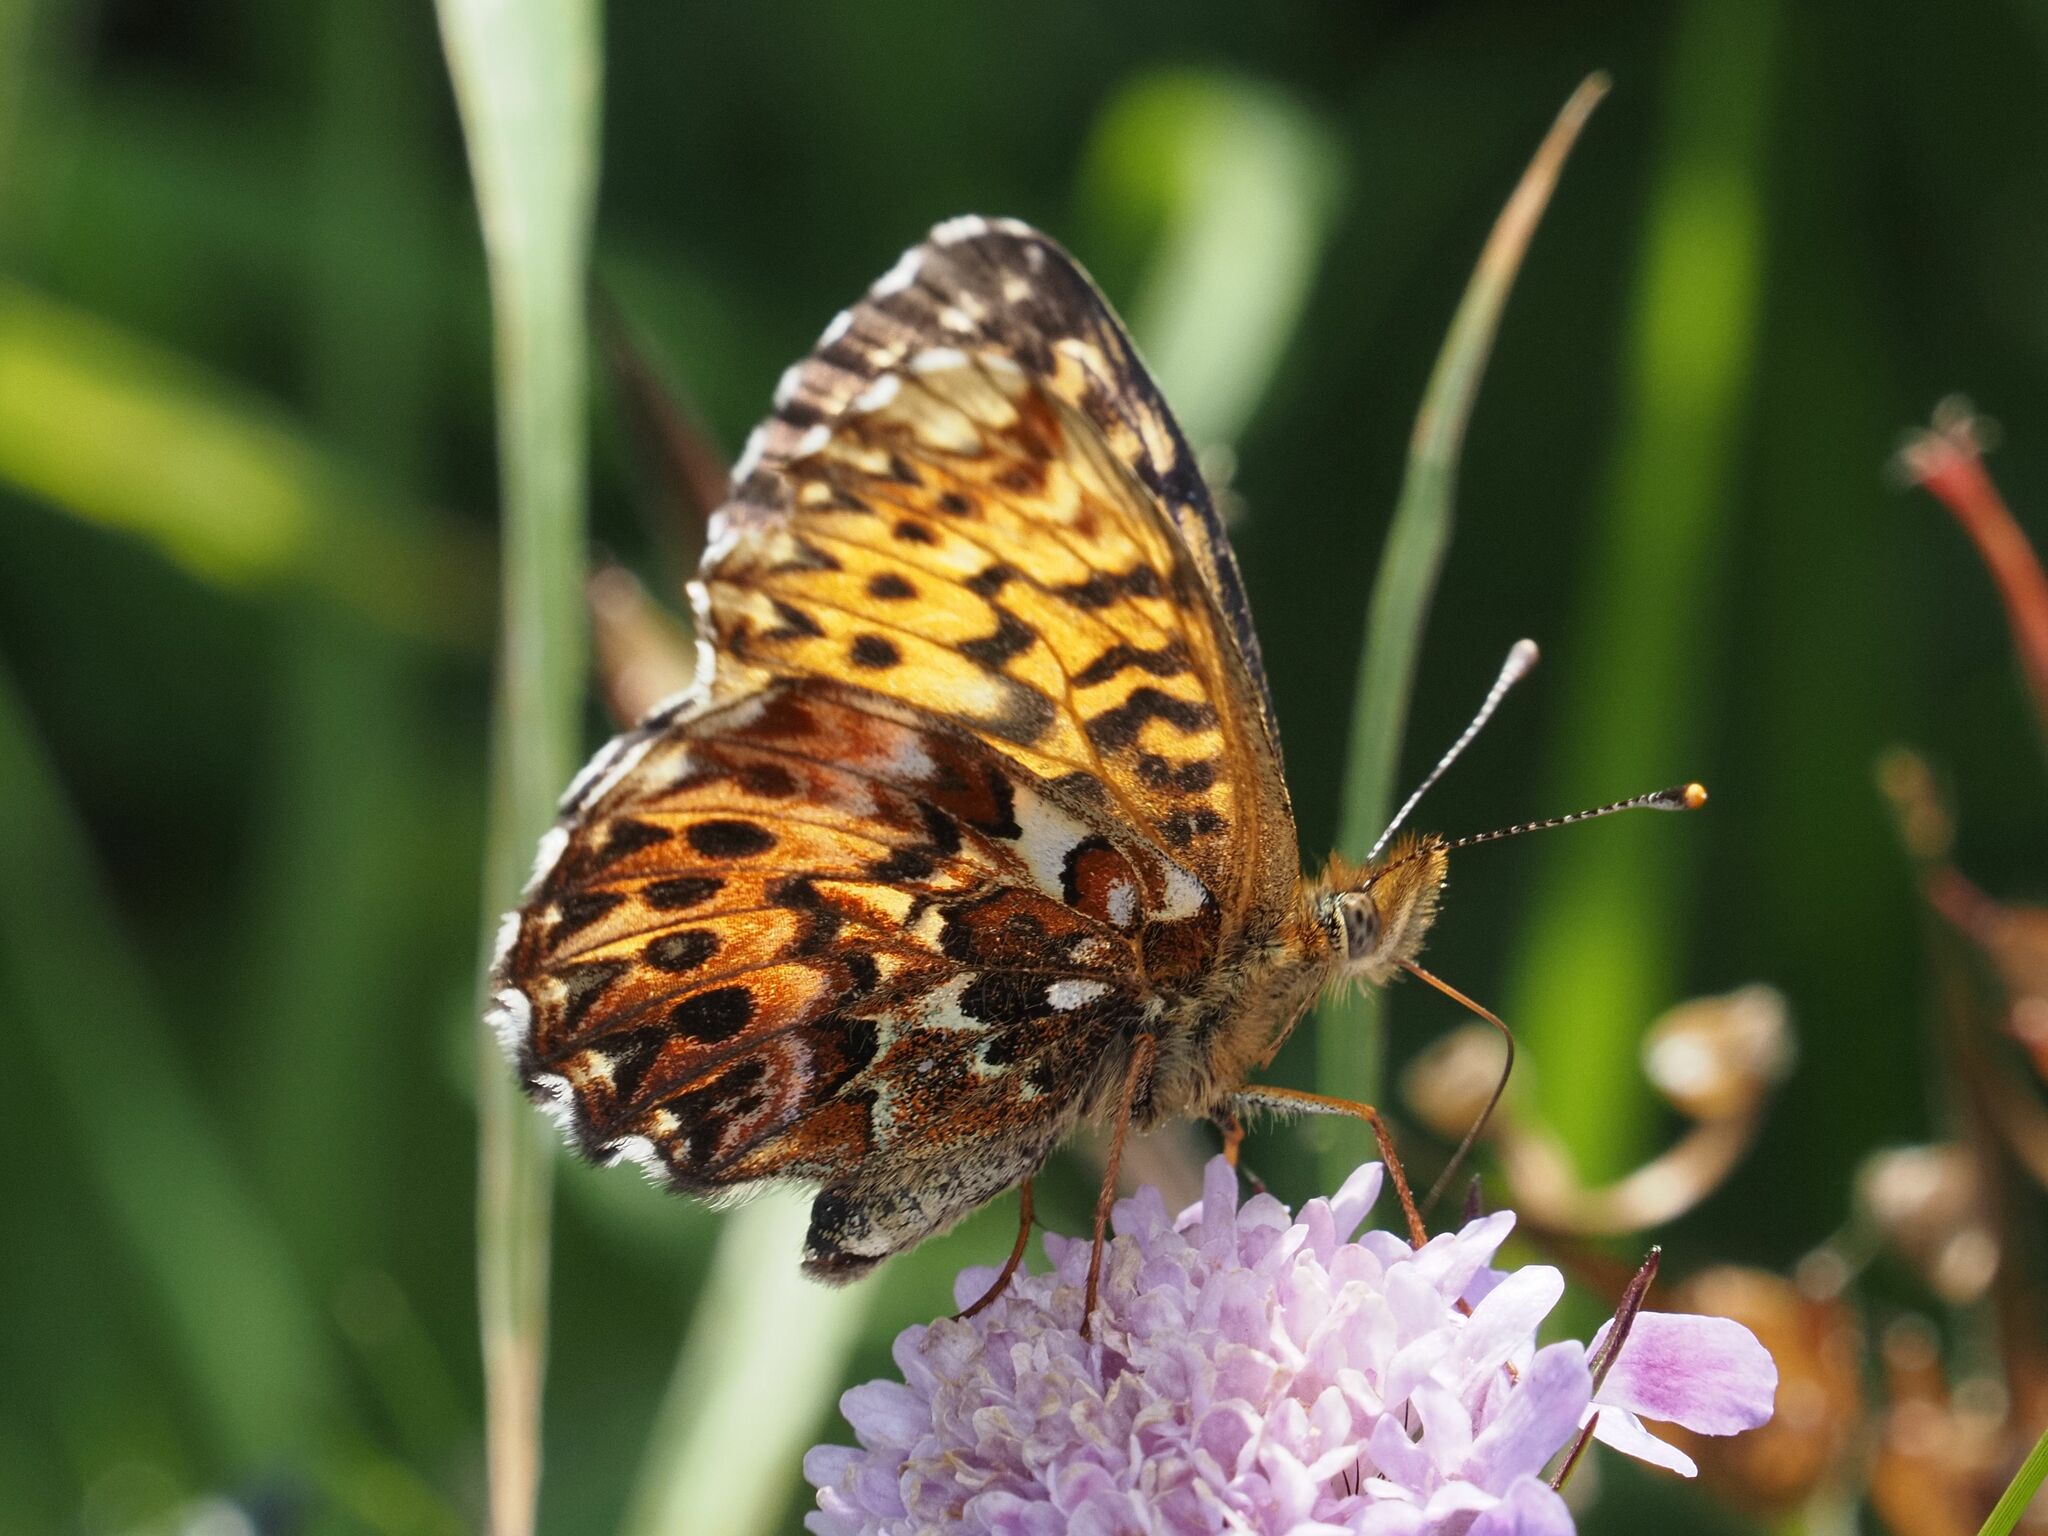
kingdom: Animalia
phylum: Arthropoda
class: Insecta
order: Lepidoptera
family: Nymphalidae
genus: Boloria
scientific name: Boloria titania
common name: Titania's fritillary
